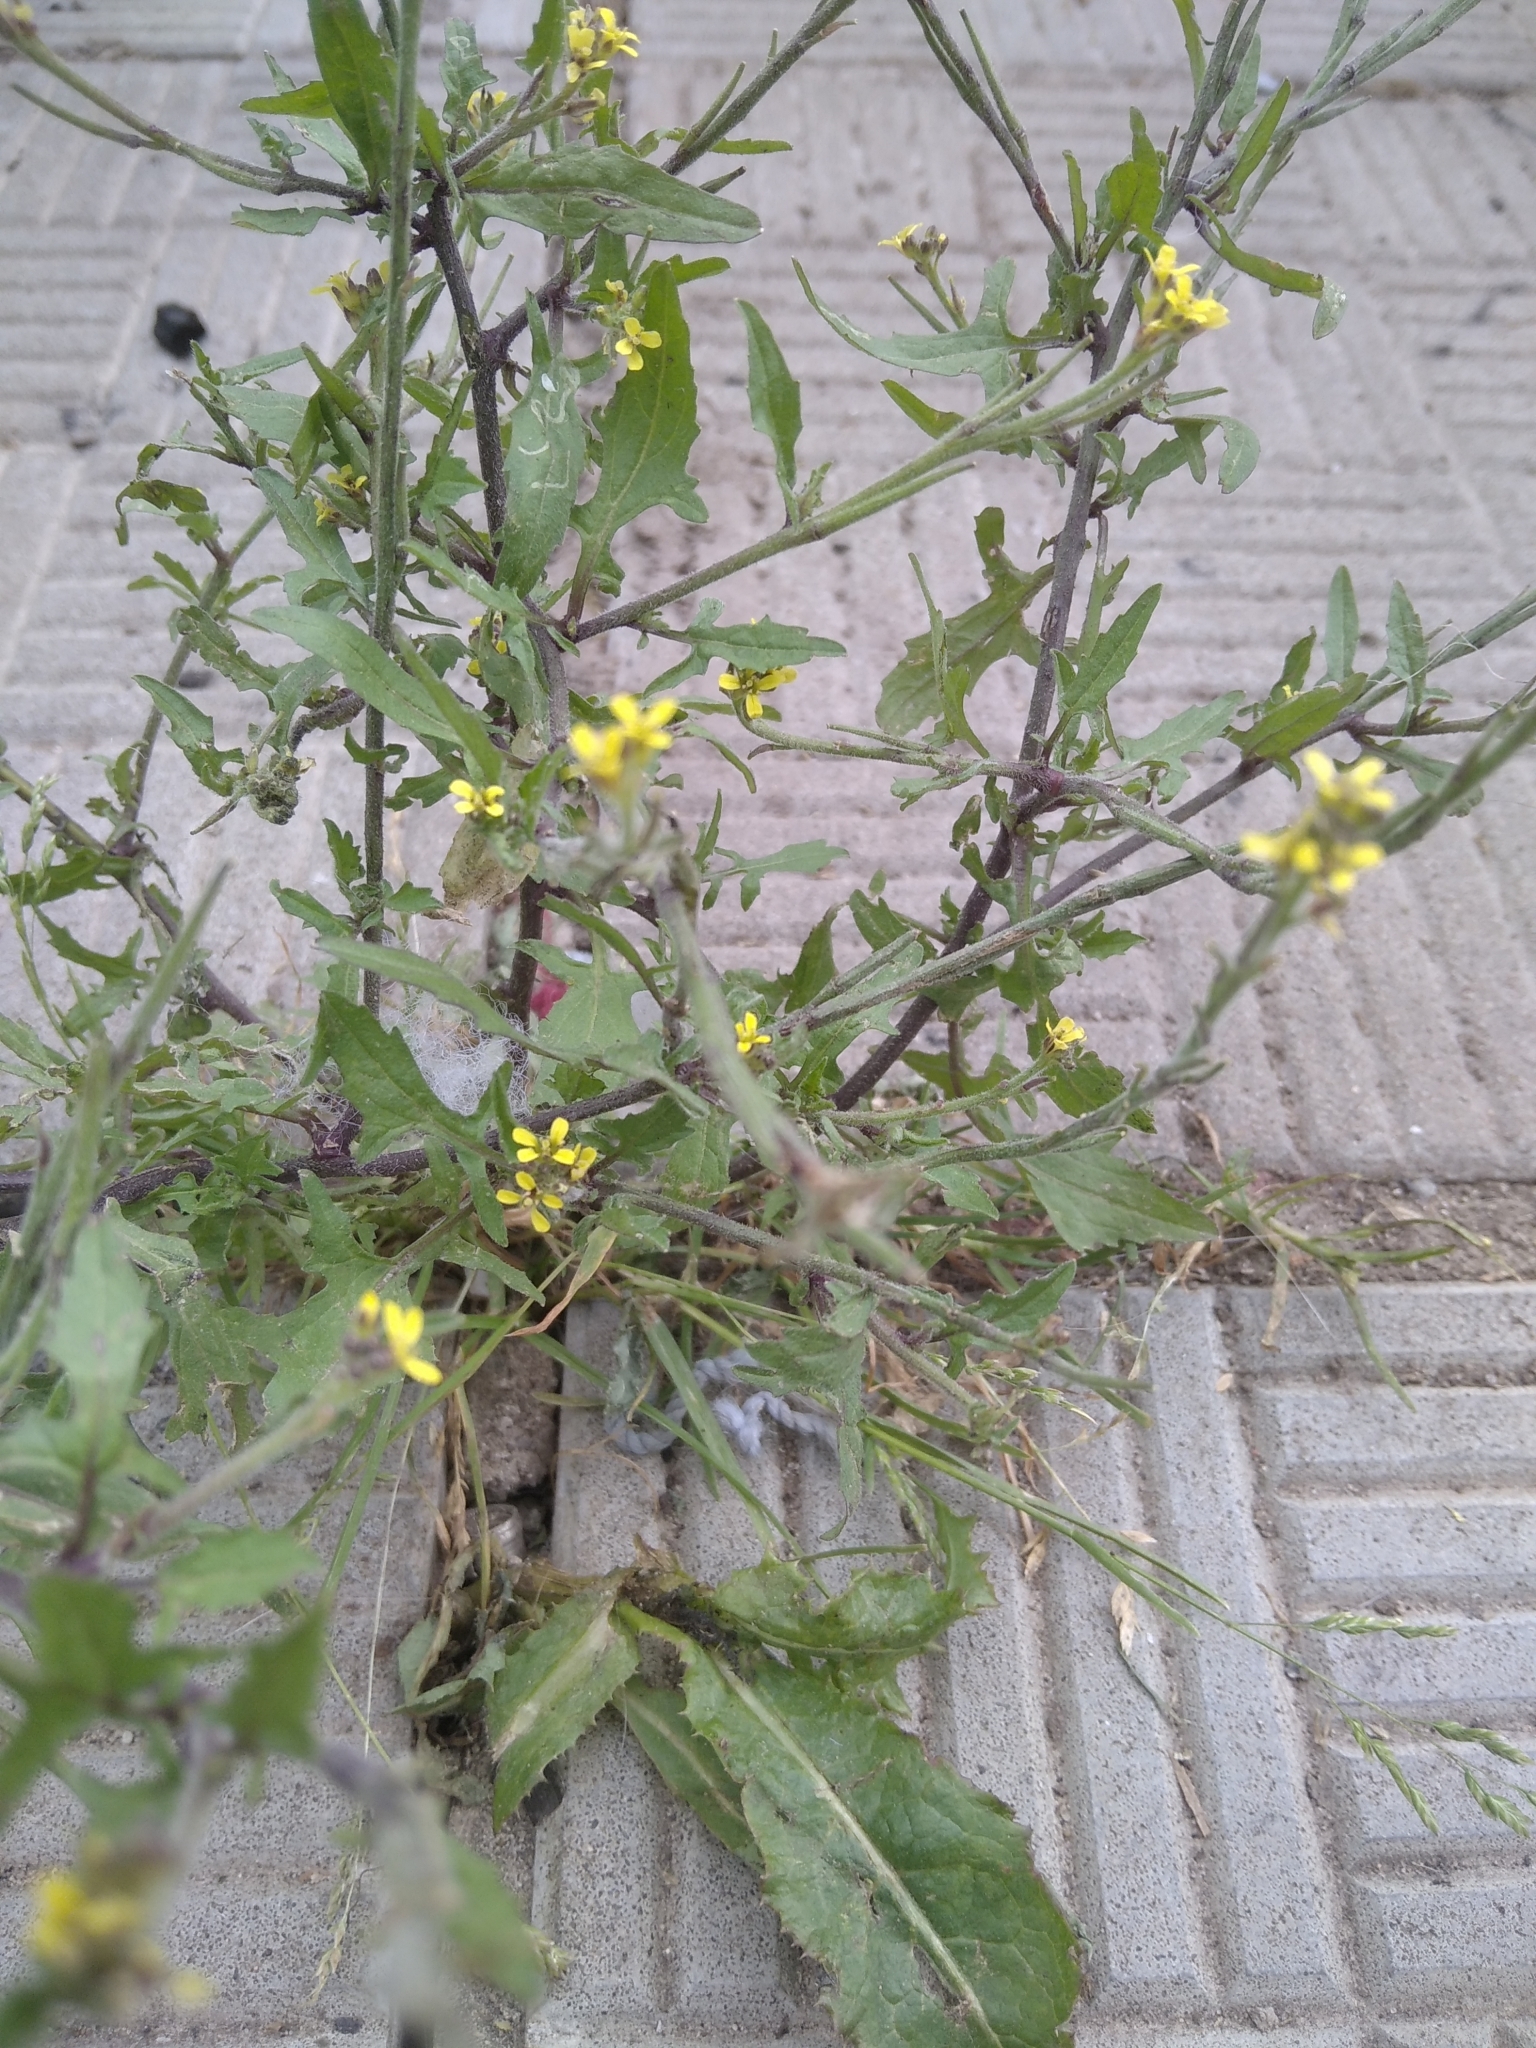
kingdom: Plantae
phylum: Tracheophyta
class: Magnoliopsida
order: Brassicales
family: Brassicaceae
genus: Sisymbrium
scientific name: Sisymbrium officinale
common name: Hedge mustard
